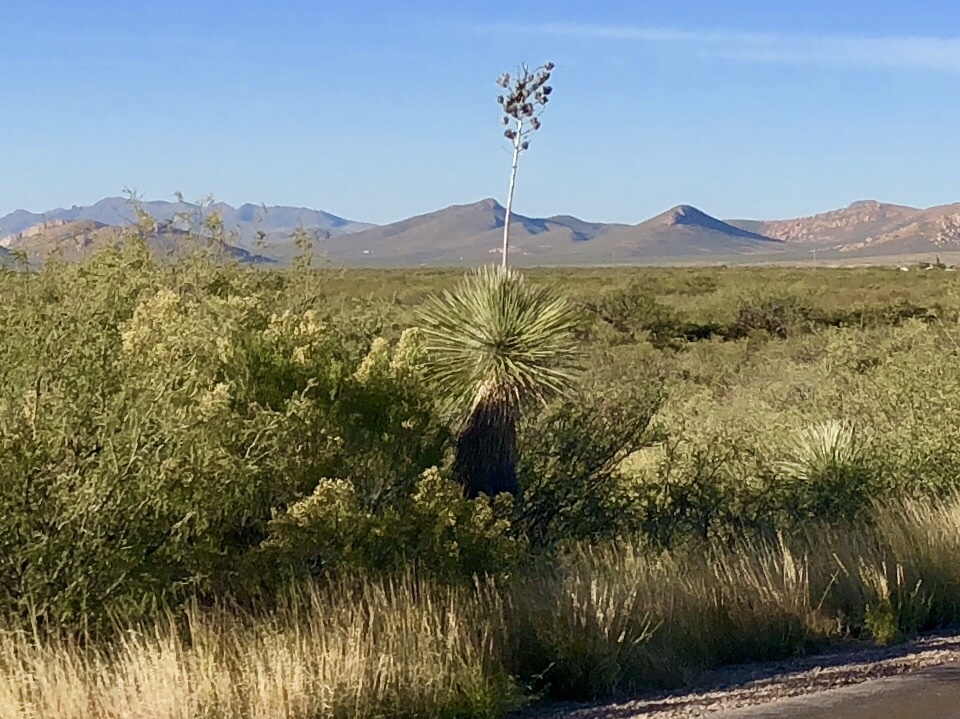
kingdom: Plantae
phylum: Tracheophyta
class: Liliopsida
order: Asparagales
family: Asparagaceae
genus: Yucca
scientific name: Yucca elata
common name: Palmella
